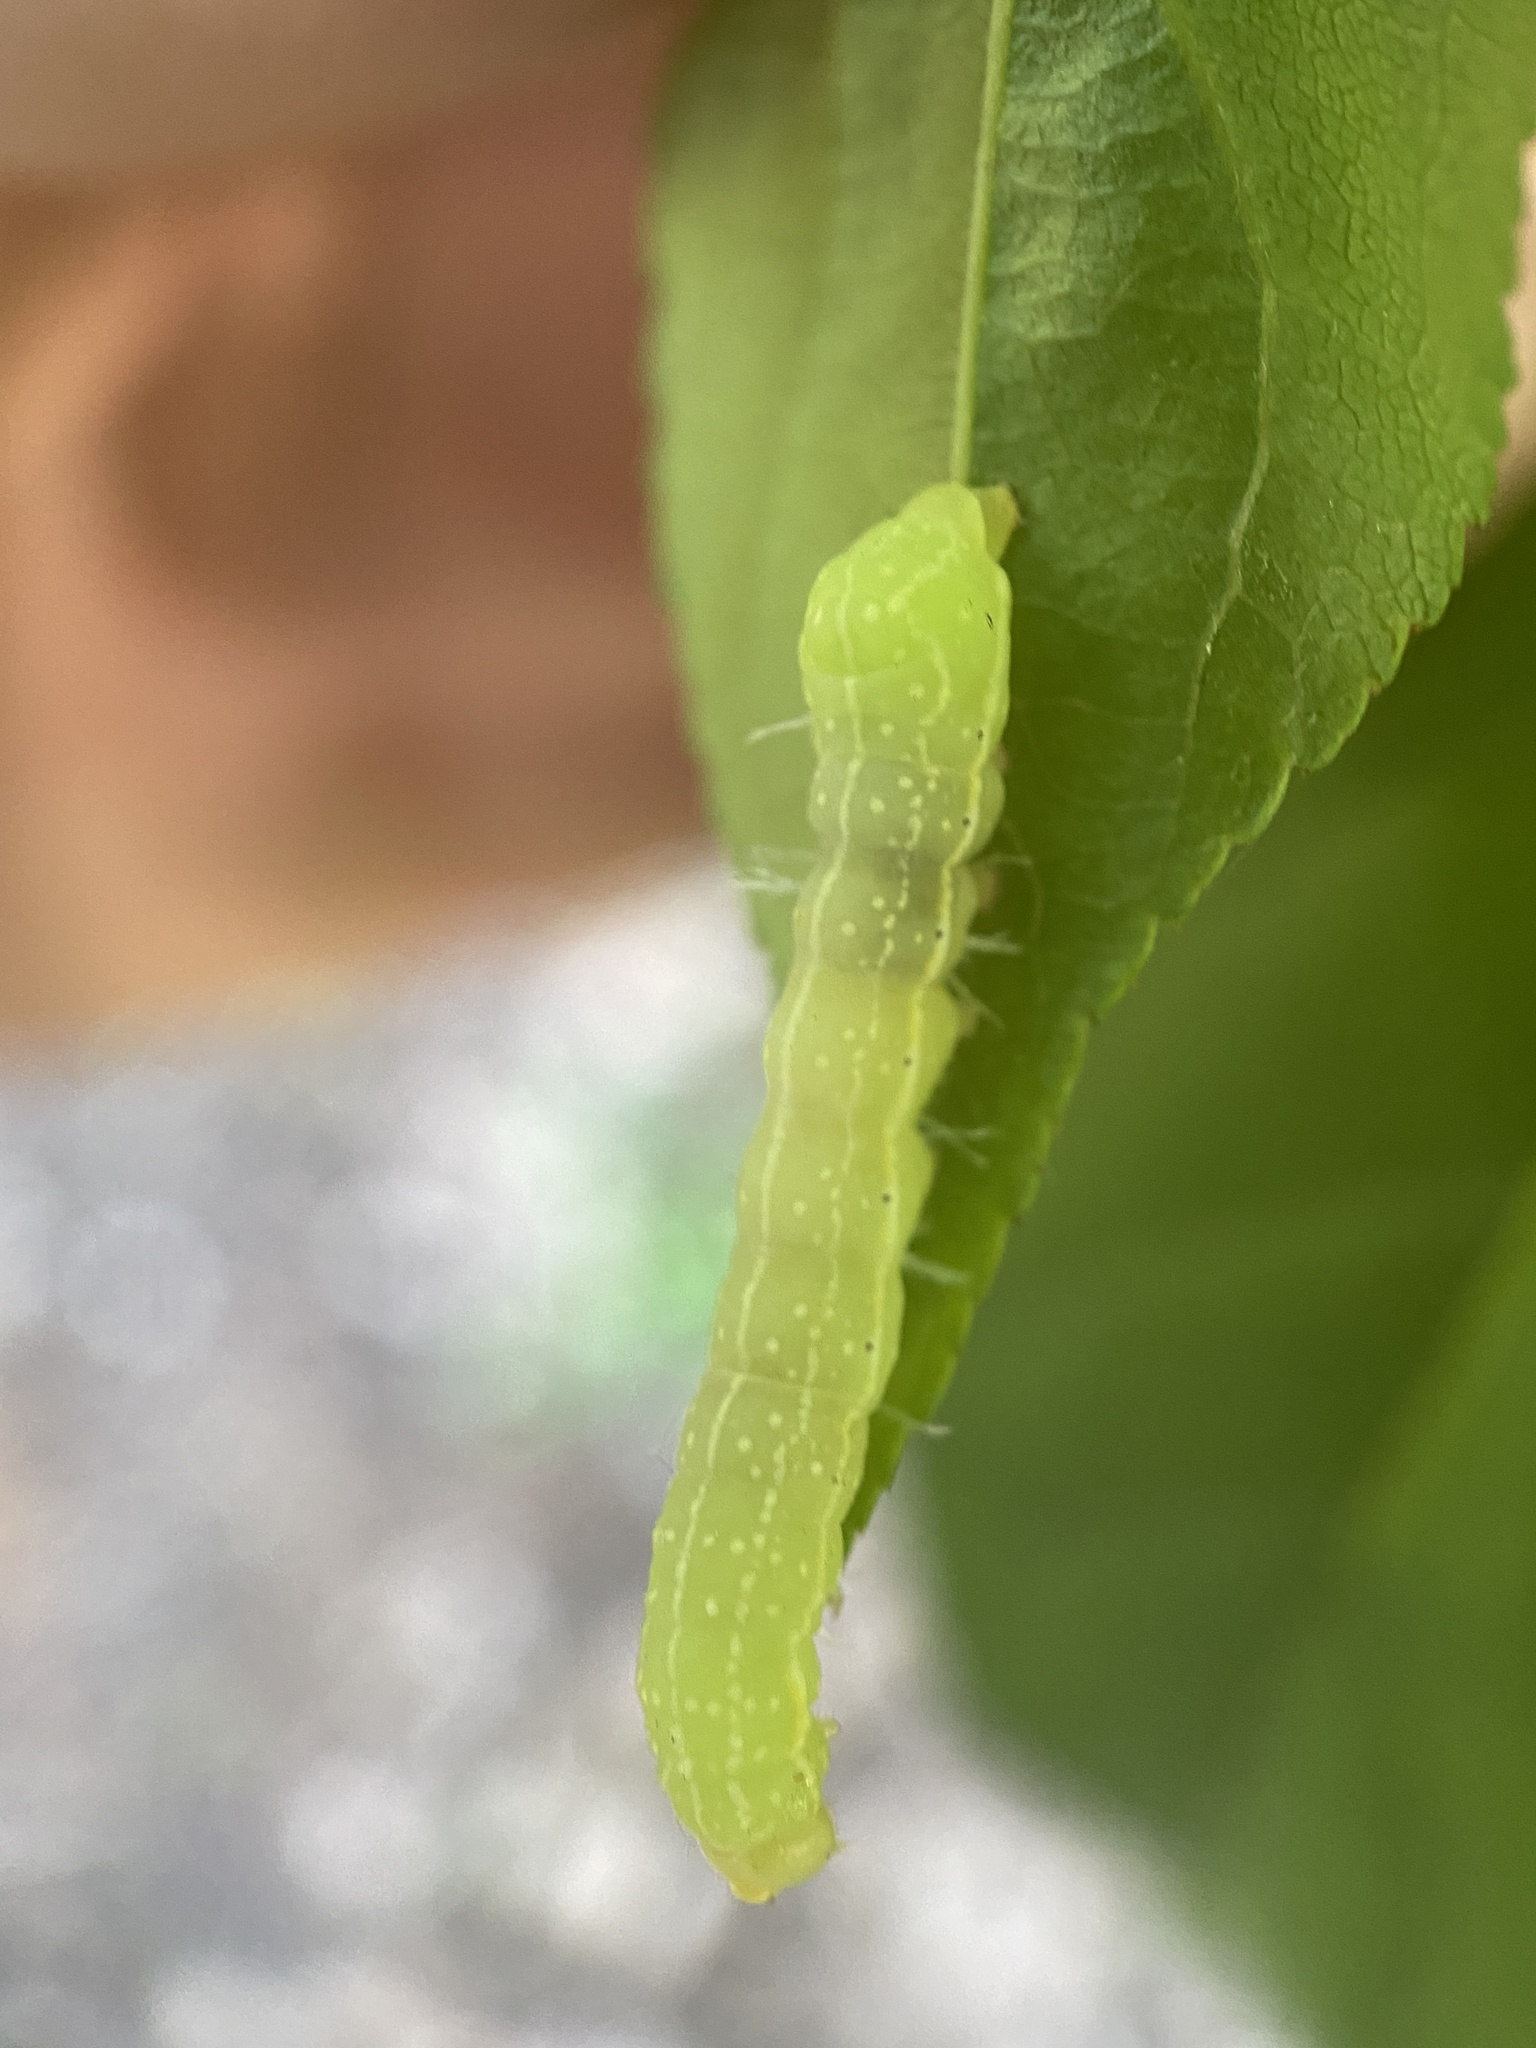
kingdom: Animalia
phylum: Arthropoda
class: Insecta
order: Lepidoptera
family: Noctuidae
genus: Amphipyra
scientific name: Amphipyra pyramidoides
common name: American copper underwing
